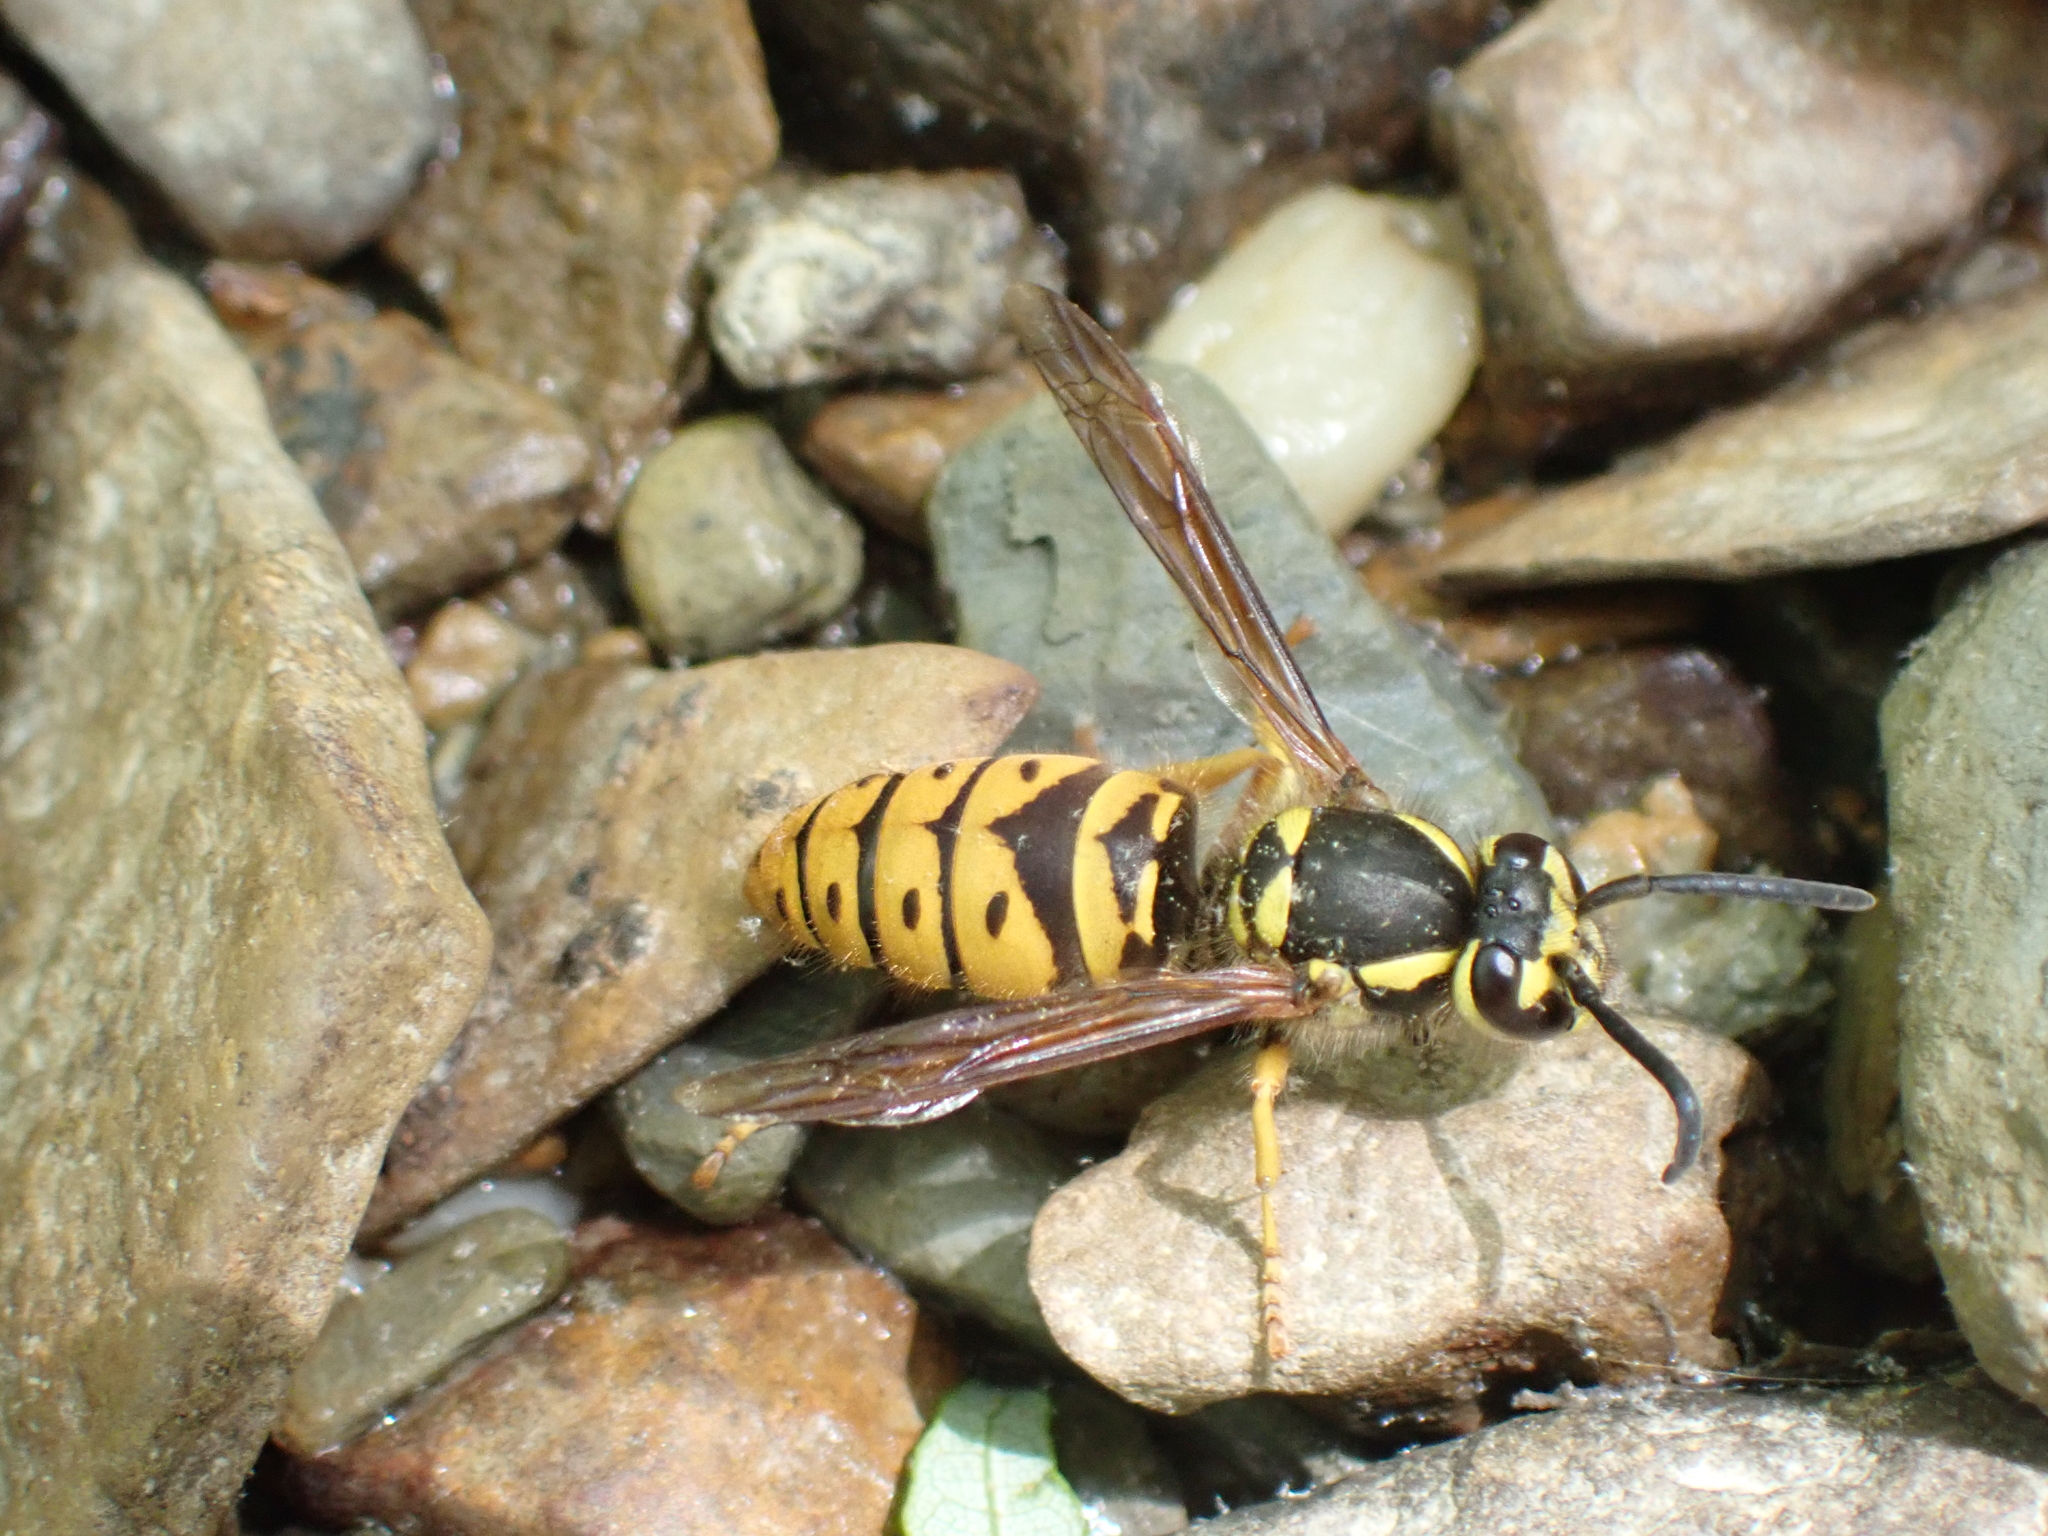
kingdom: Animalia
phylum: Arthropoda
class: Insecta
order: Hymenoptera
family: Vespidae
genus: Vespula
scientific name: Vespula maculifrons
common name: Eastern yellowjacket
